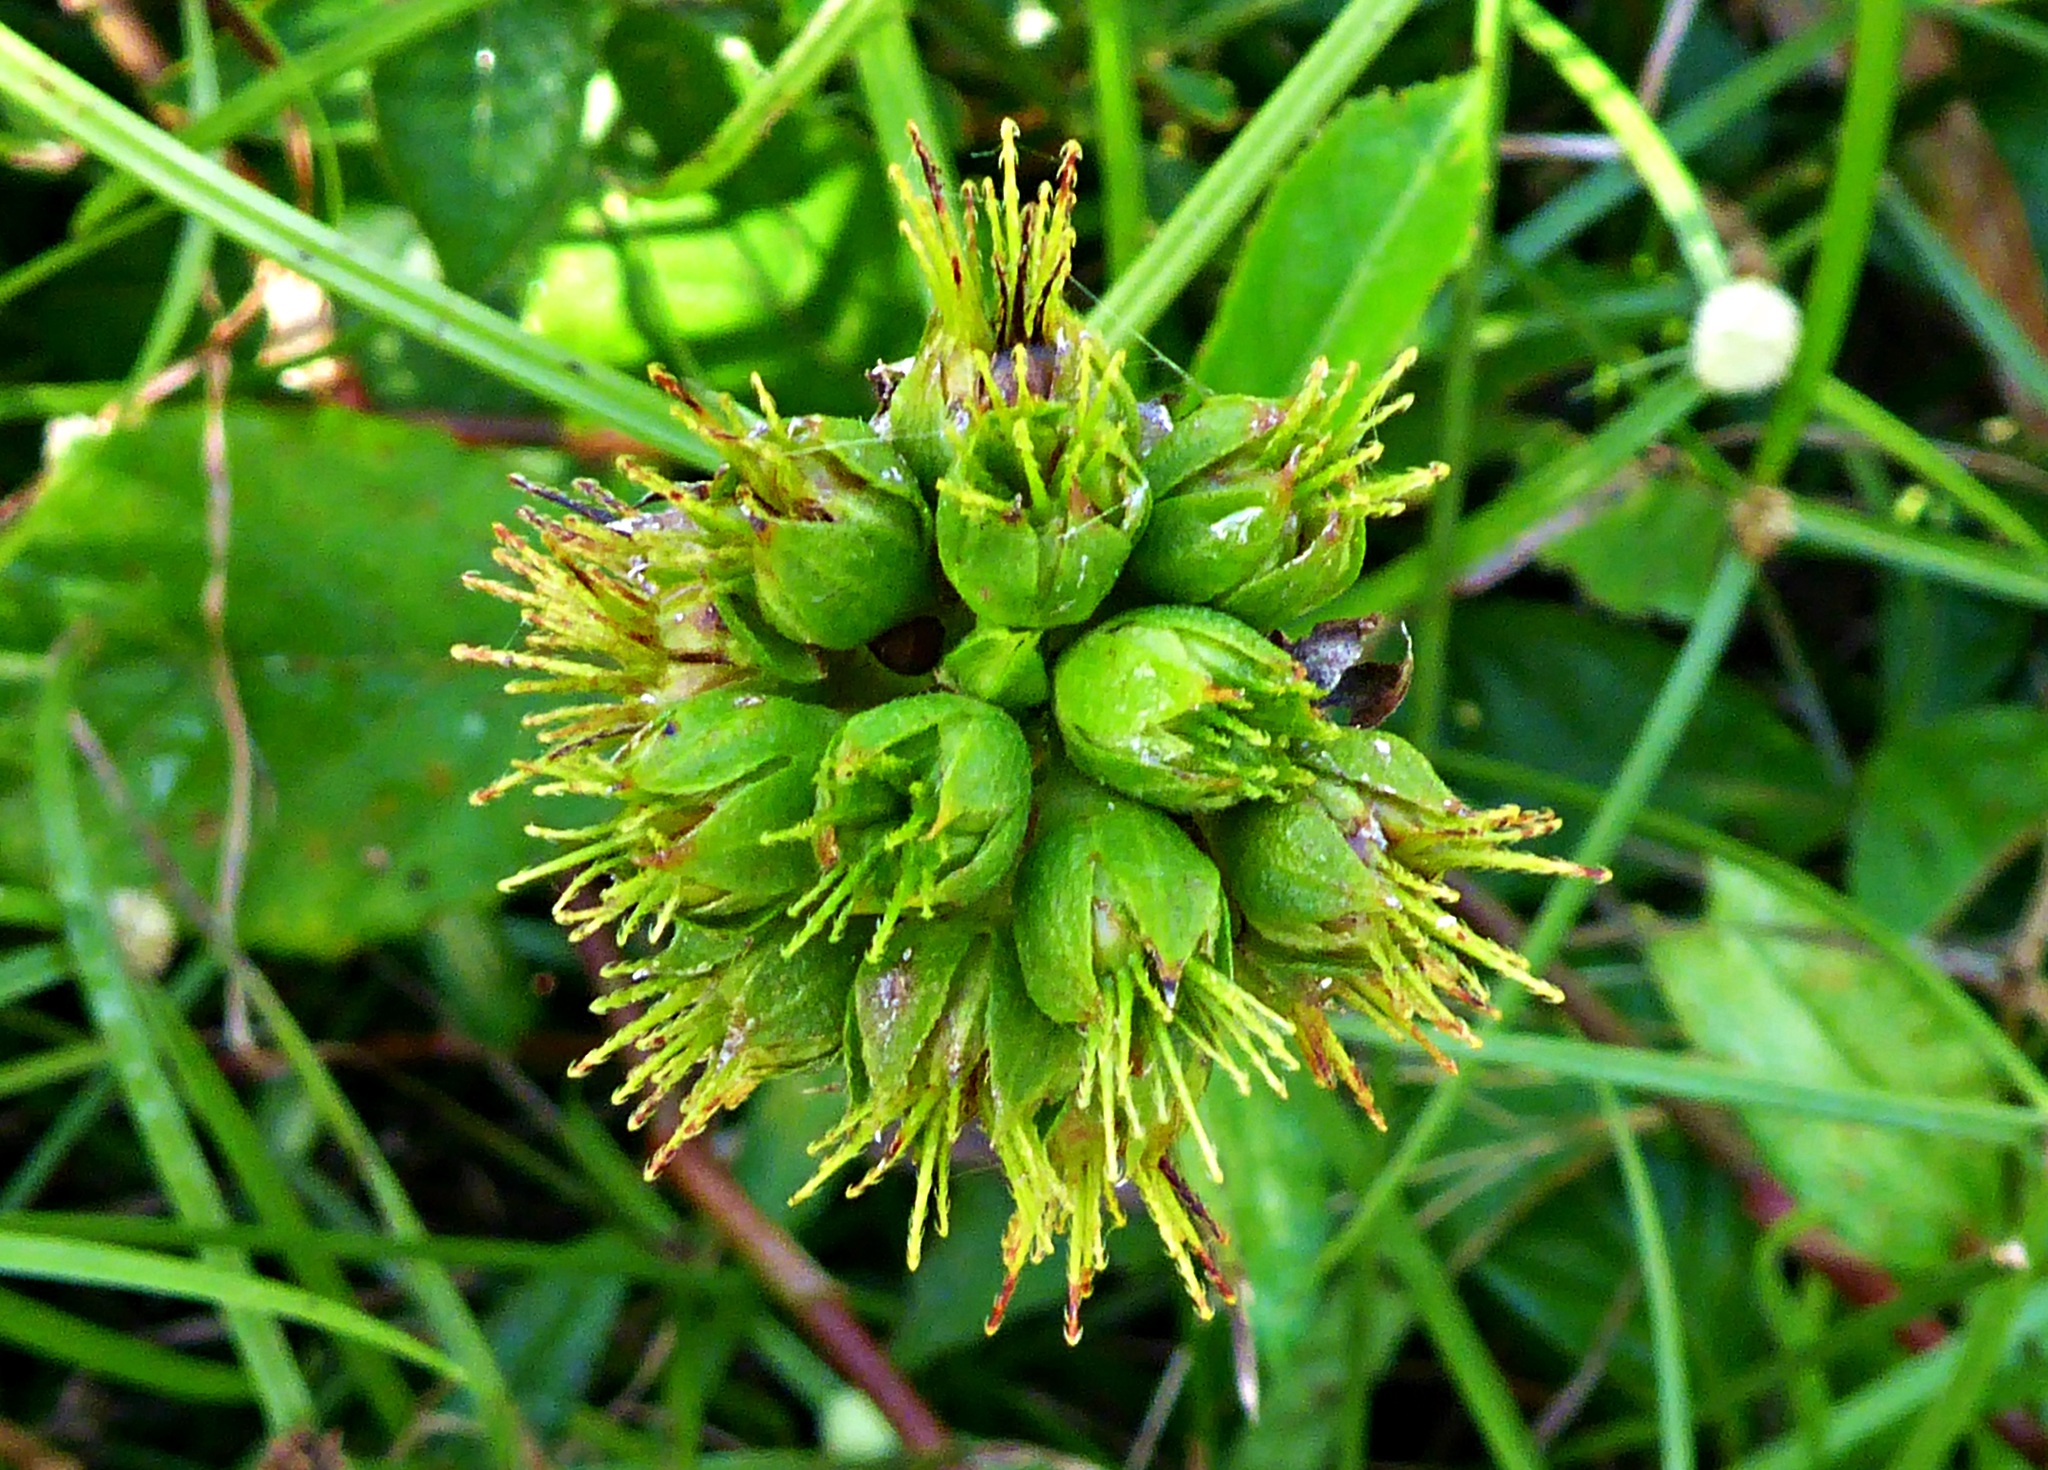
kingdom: Plantae
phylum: Tracheophyta
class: Magnoliopsida
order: Malvales
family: Malvaceae
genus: Pavonia
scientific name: Pavonia fruticosa
